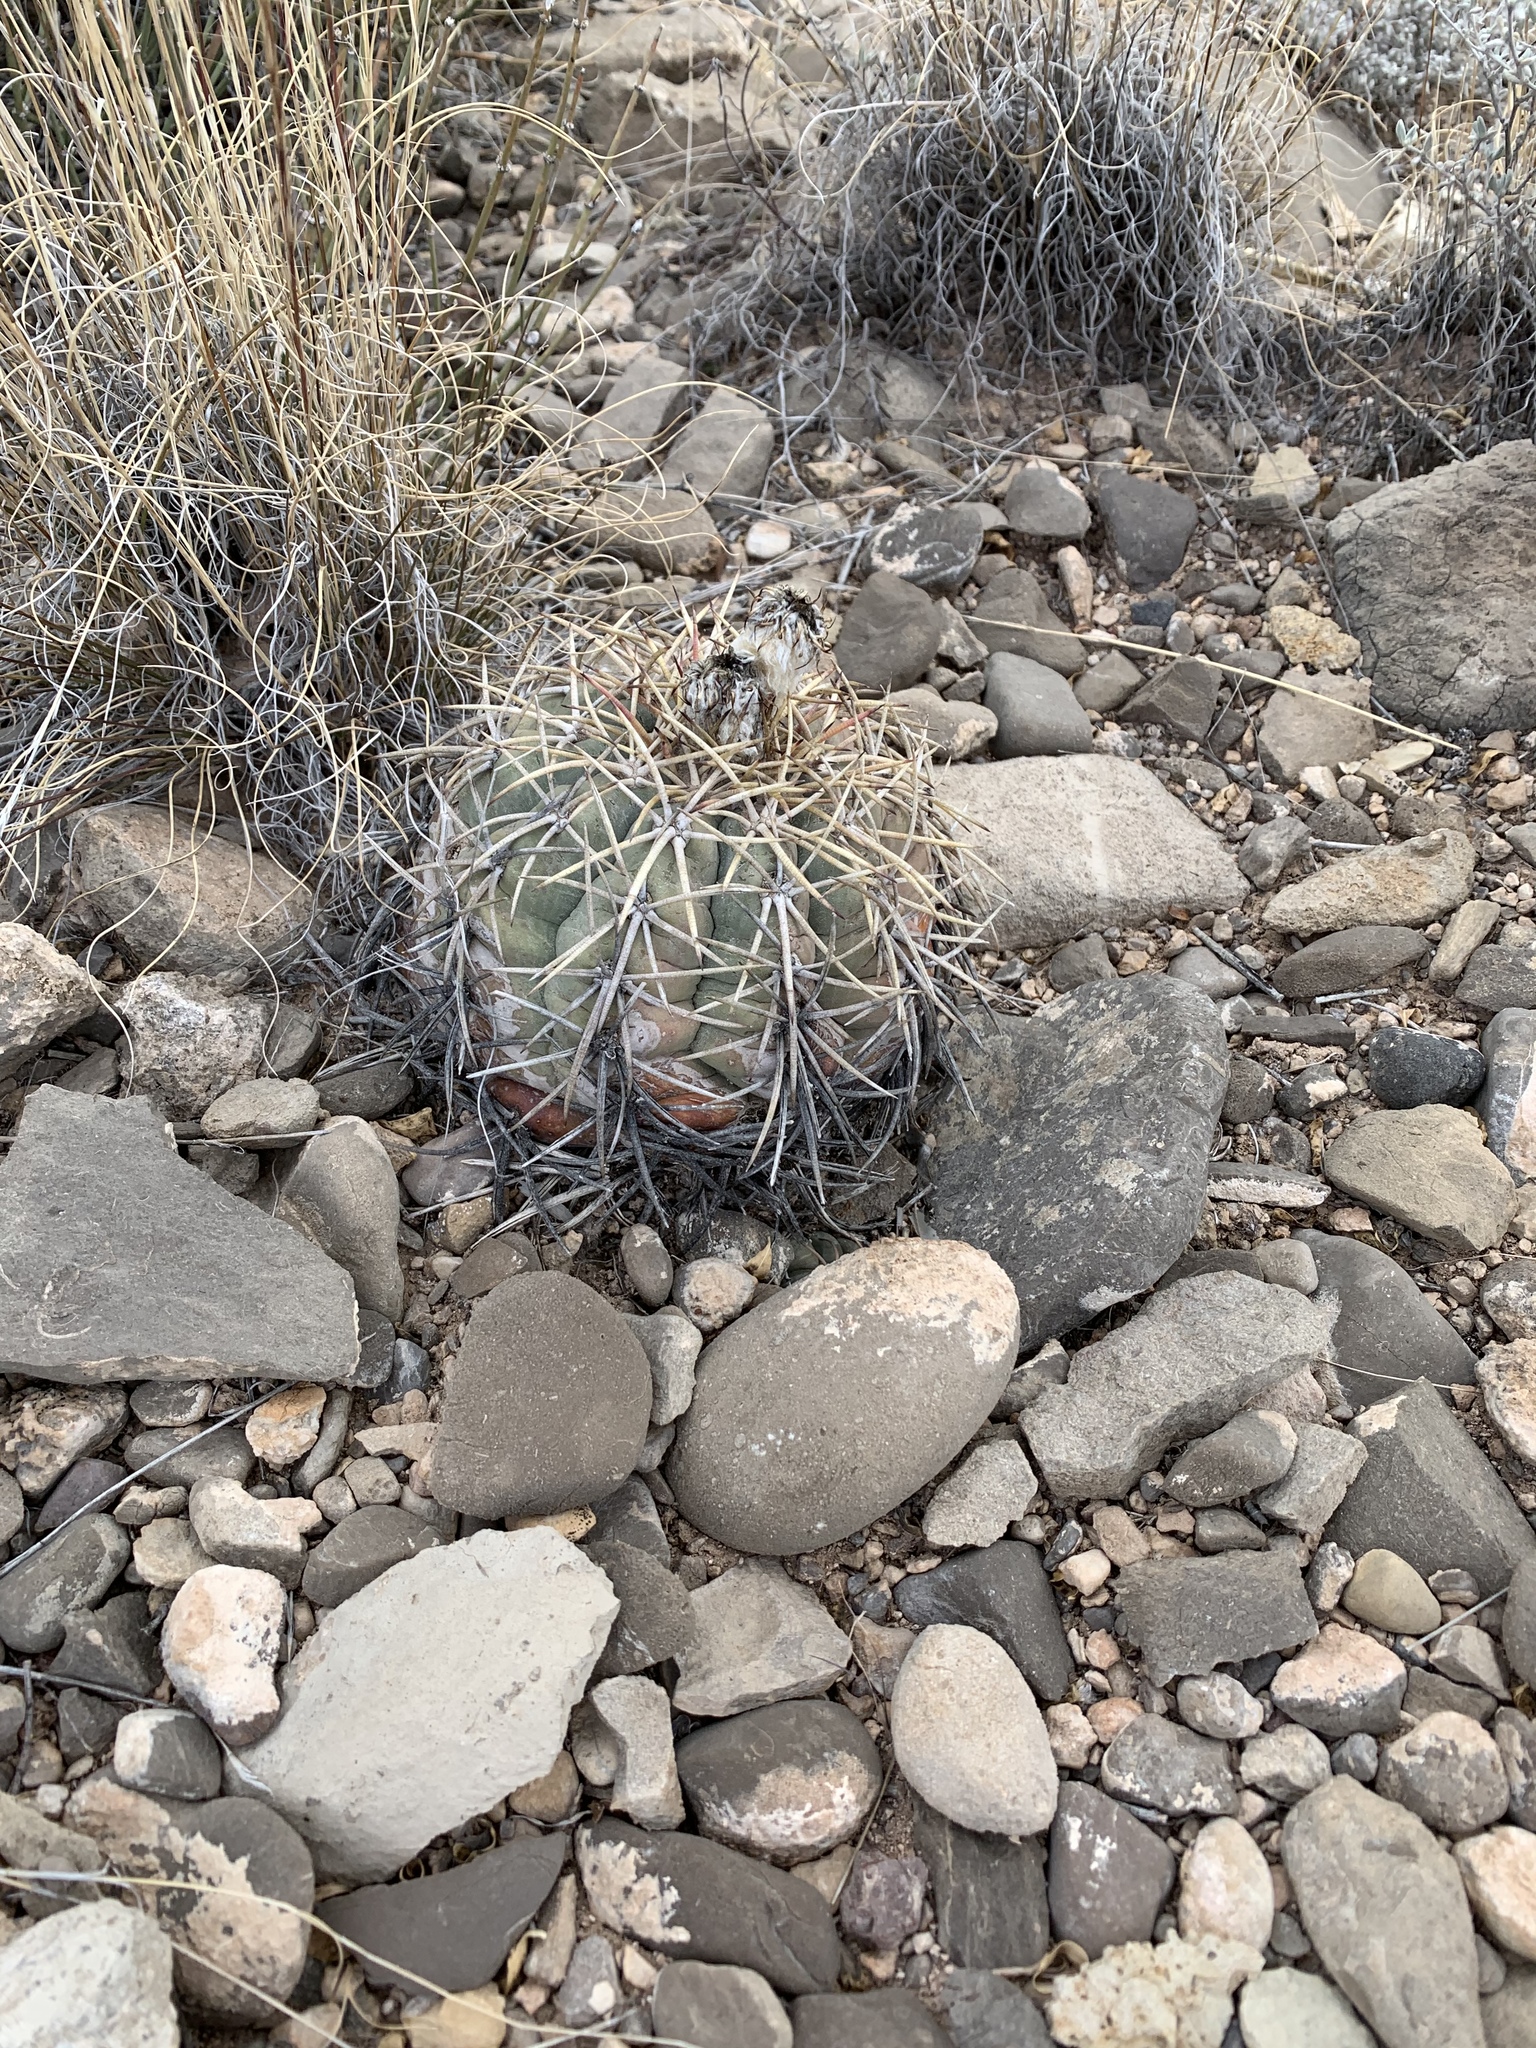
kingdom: Plantae
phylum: Tracheophyta
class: Magnoliopsida
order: Caryophyllales
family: Cactaceae
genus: Echinocactus
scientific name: Echinocactus horizonthalonius
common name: Devilshead
